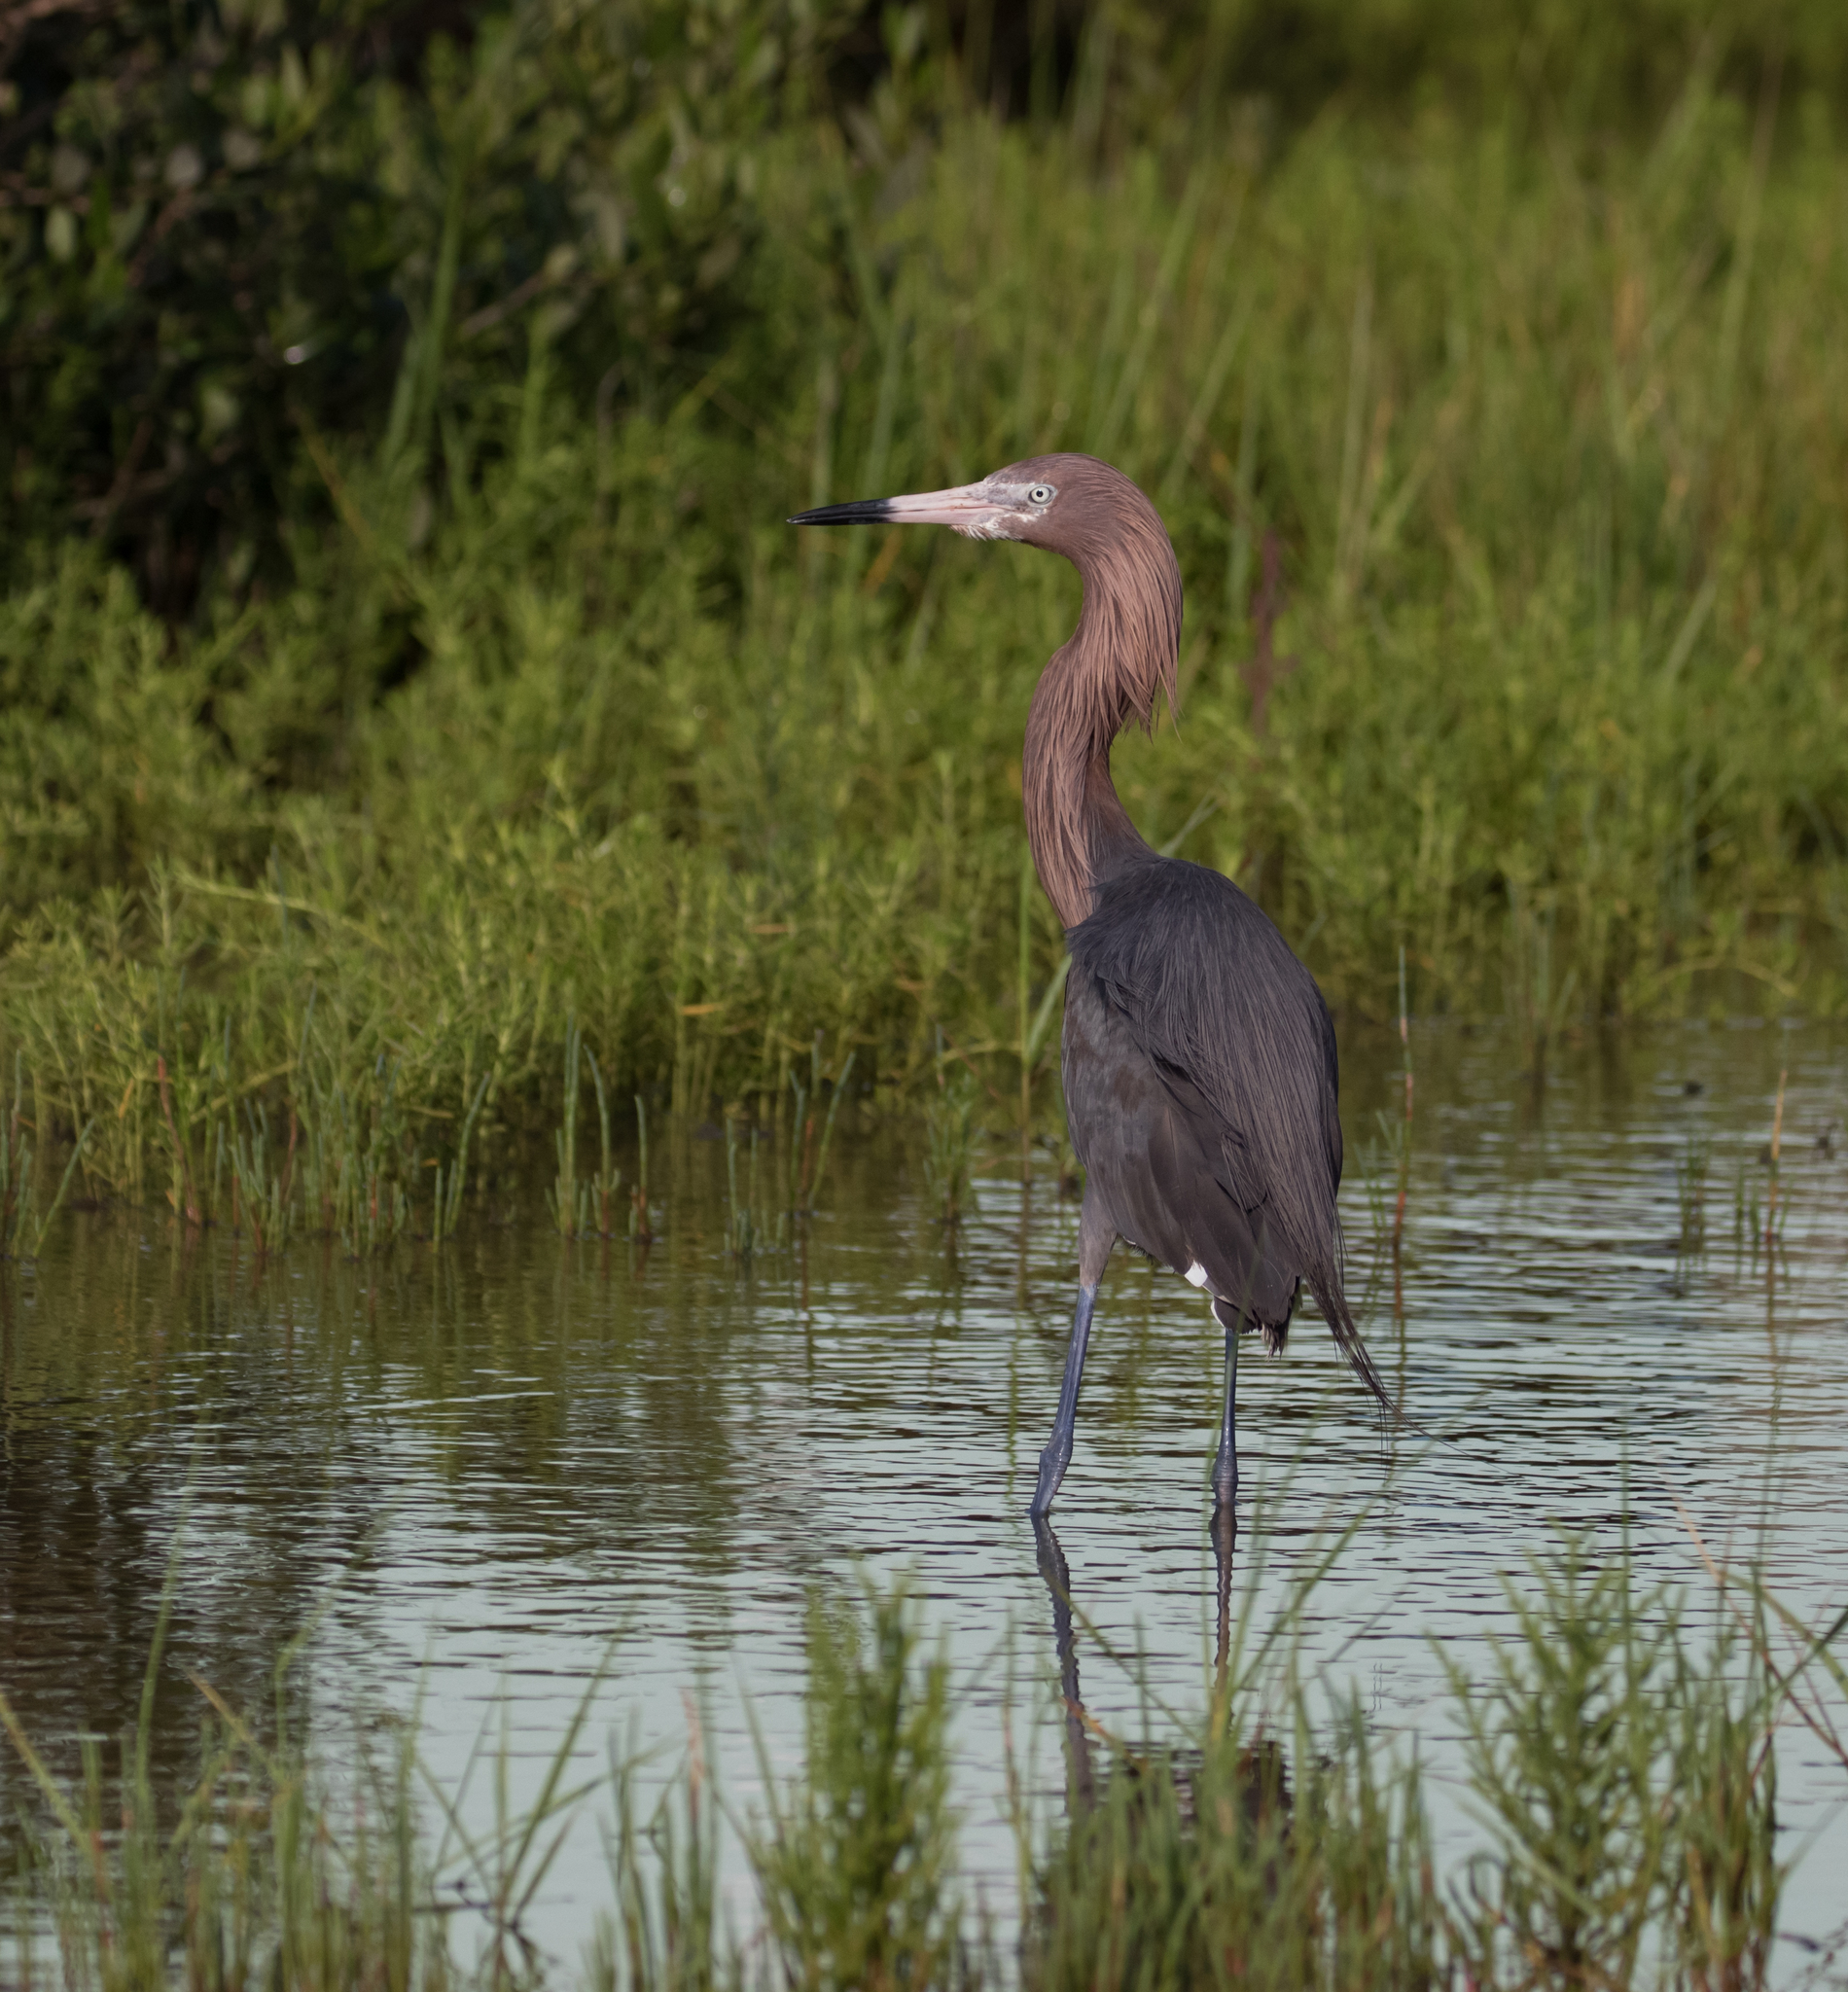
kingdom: Animalia
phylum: Chordata
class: Aves
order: Pelecaniformes
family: Ardeidae
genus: Egretta
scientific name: Egretta rufescens
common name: Reddish egret
